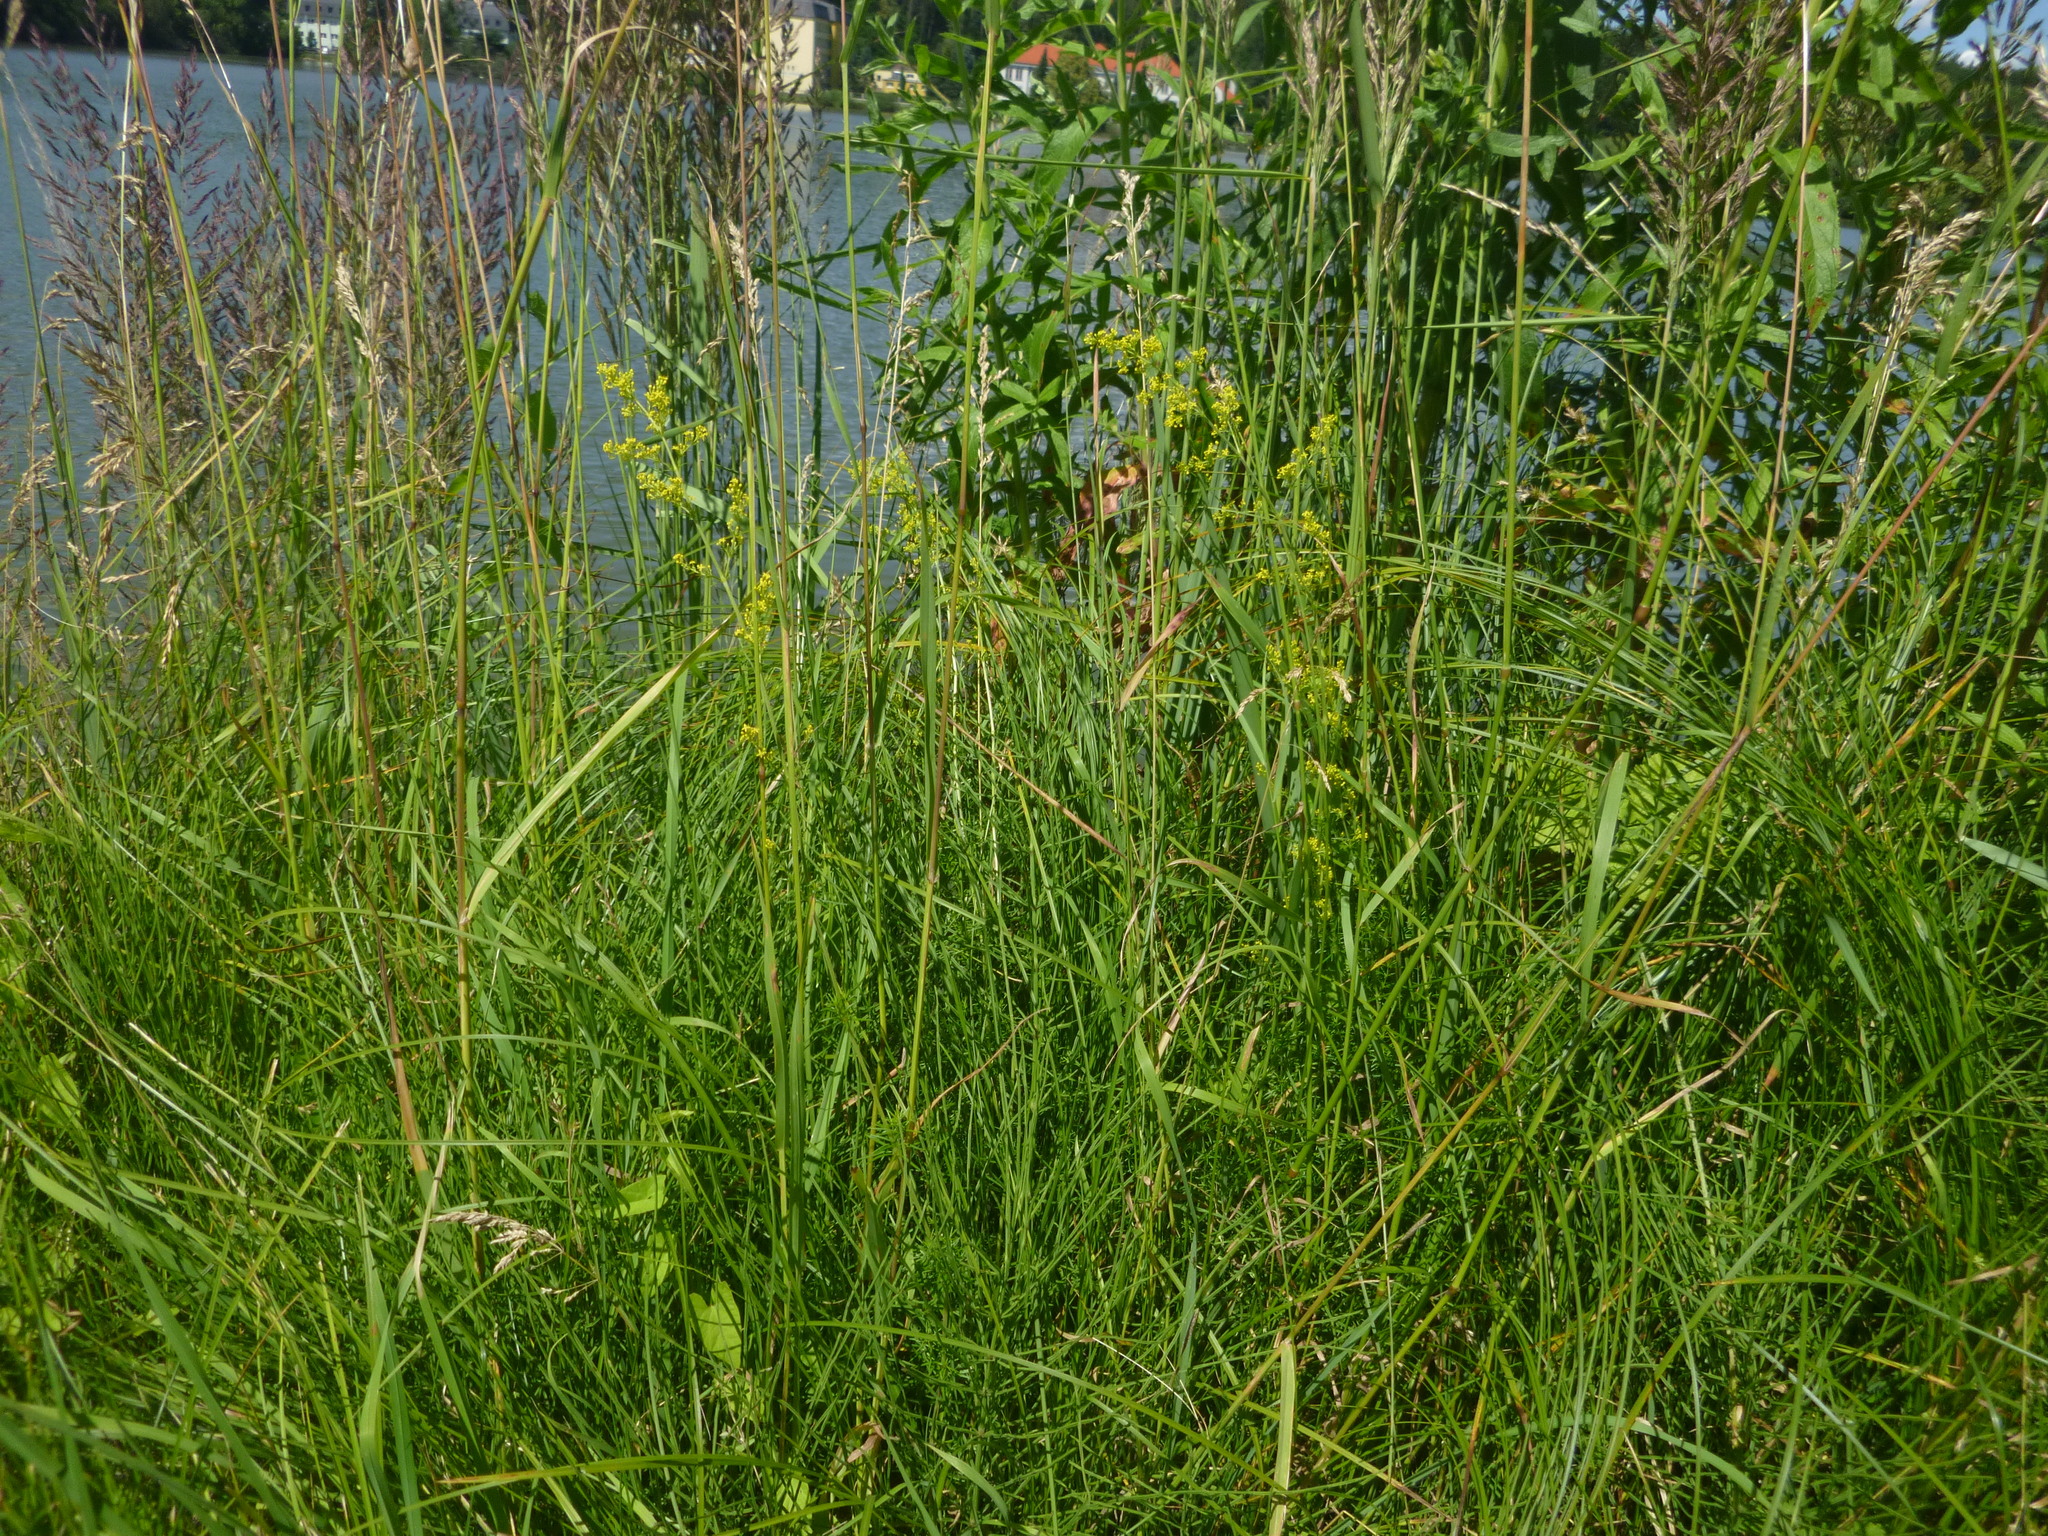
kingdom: Plantae
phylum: Tracheophyta
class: Magnoliopsida
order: Gentianales
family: Rubiaceae
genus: Galium
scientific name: Galium verum
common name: Lady's bedstraw
